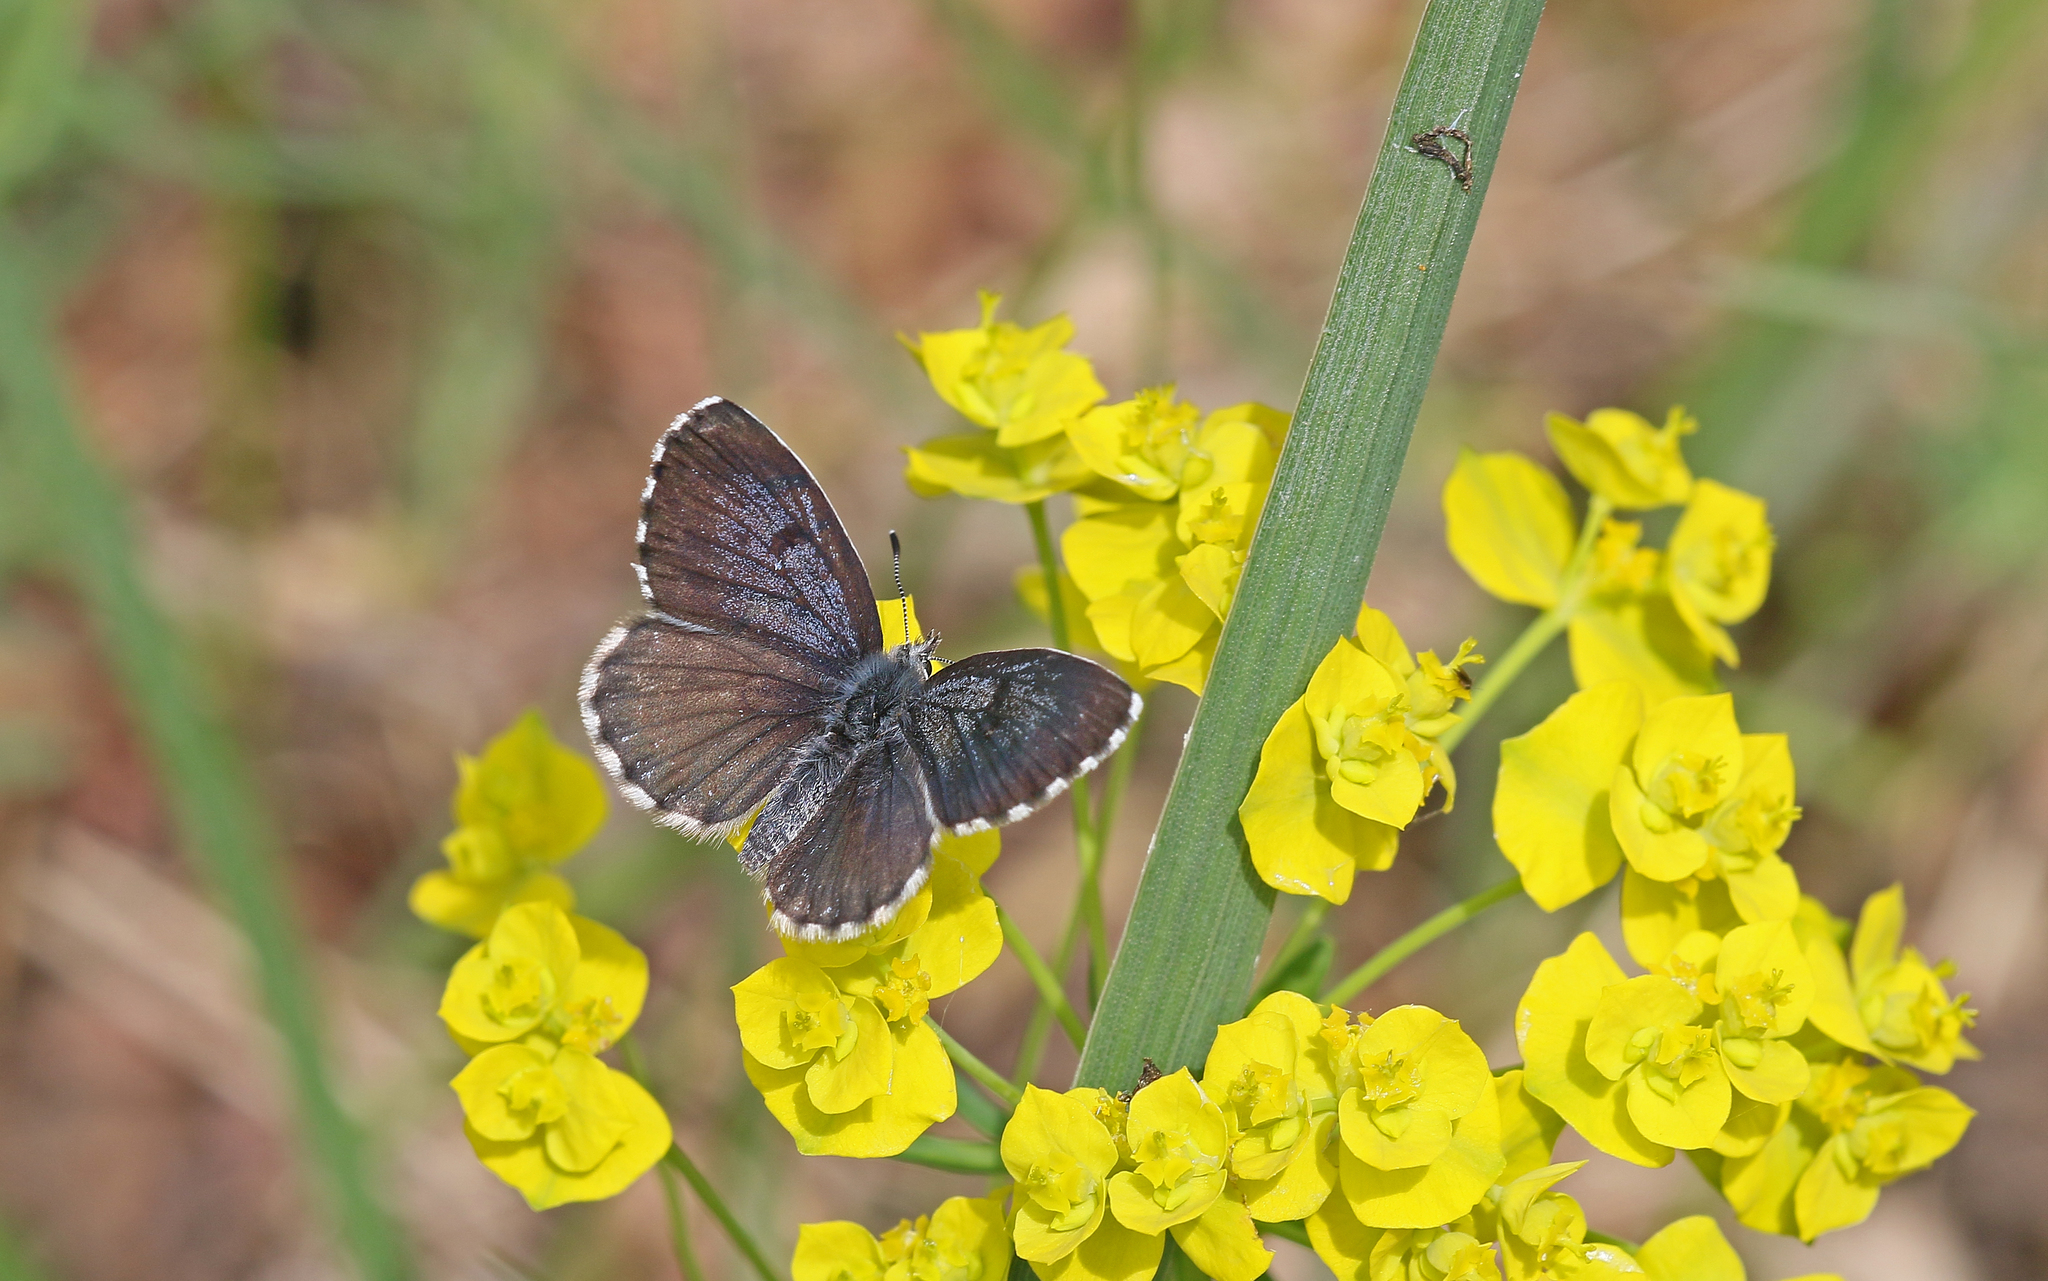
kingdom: Animalia
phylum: Arthropoda
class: Insecta
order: Lepidoptera
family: Lycaenidae
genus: Scolitantides
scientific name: Scolitantides orion
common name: Chequered blue
